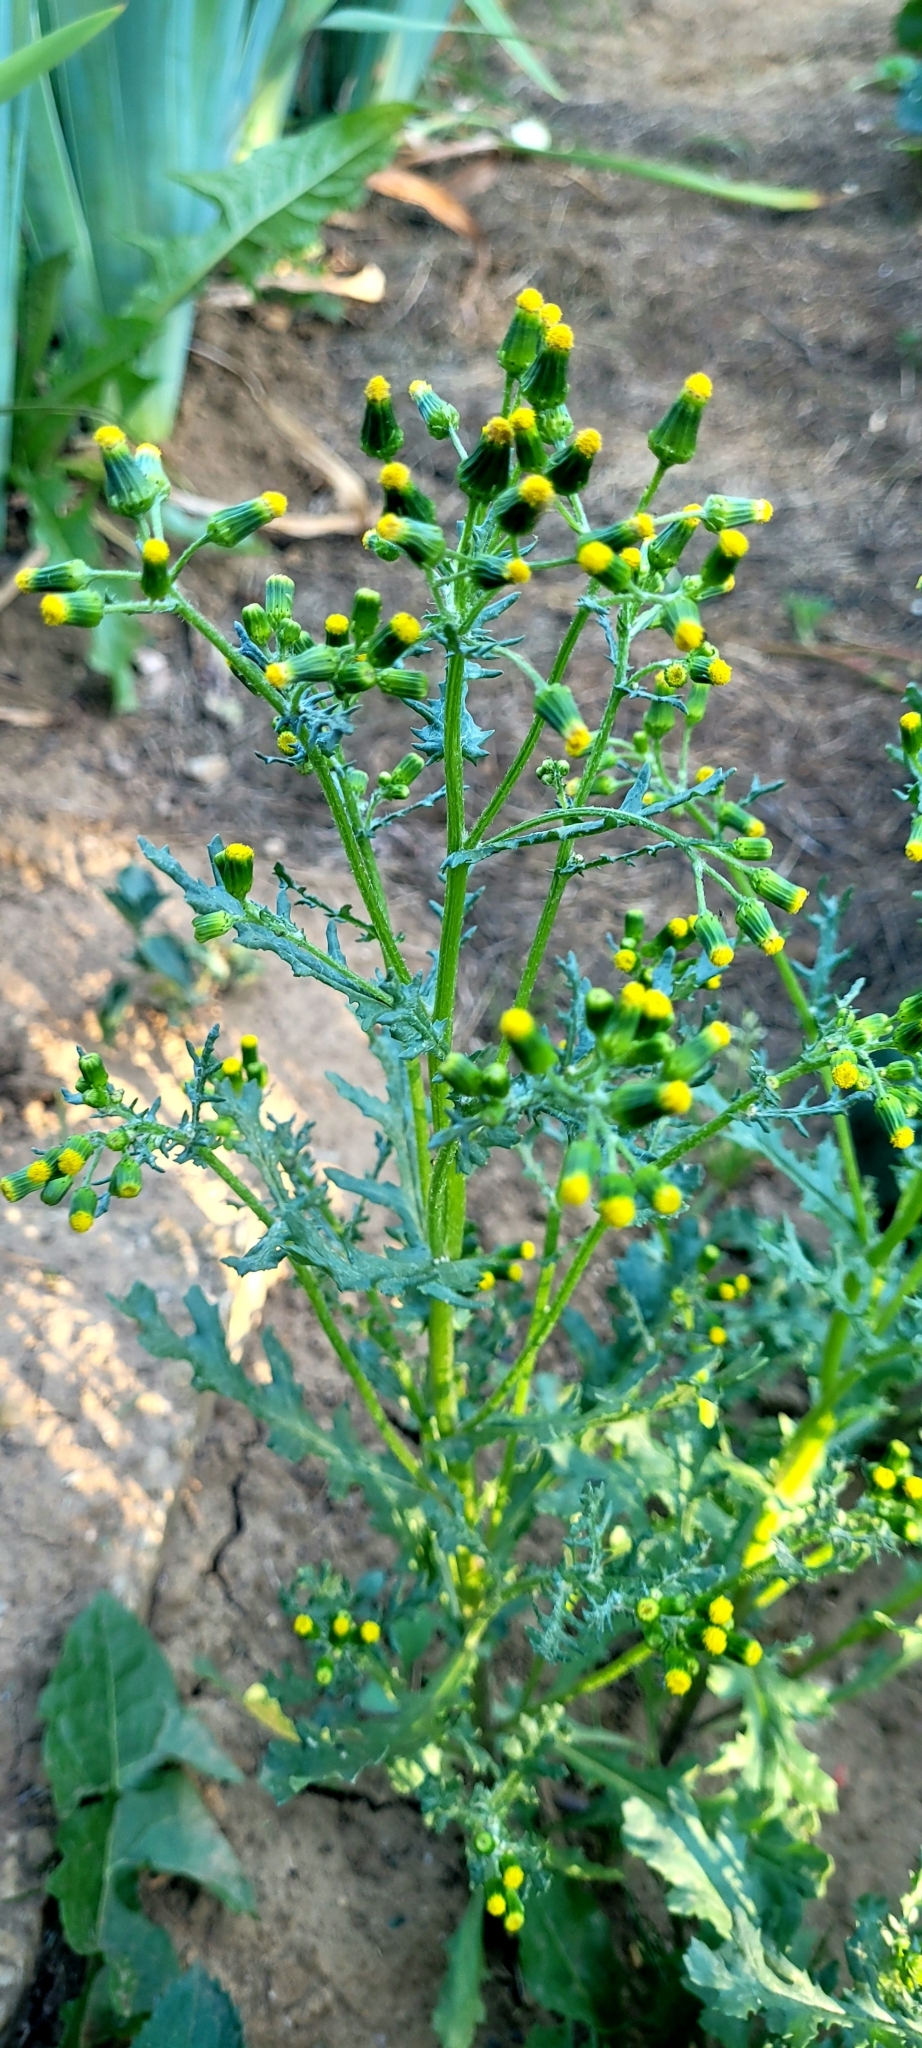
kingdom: Plantae
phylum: Tracheophyta
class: Magnoliopsida
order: Asterales
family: Asteraceae
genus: Senecio
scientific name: Senecio vulgaris
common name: Old-man-in-the-spring
